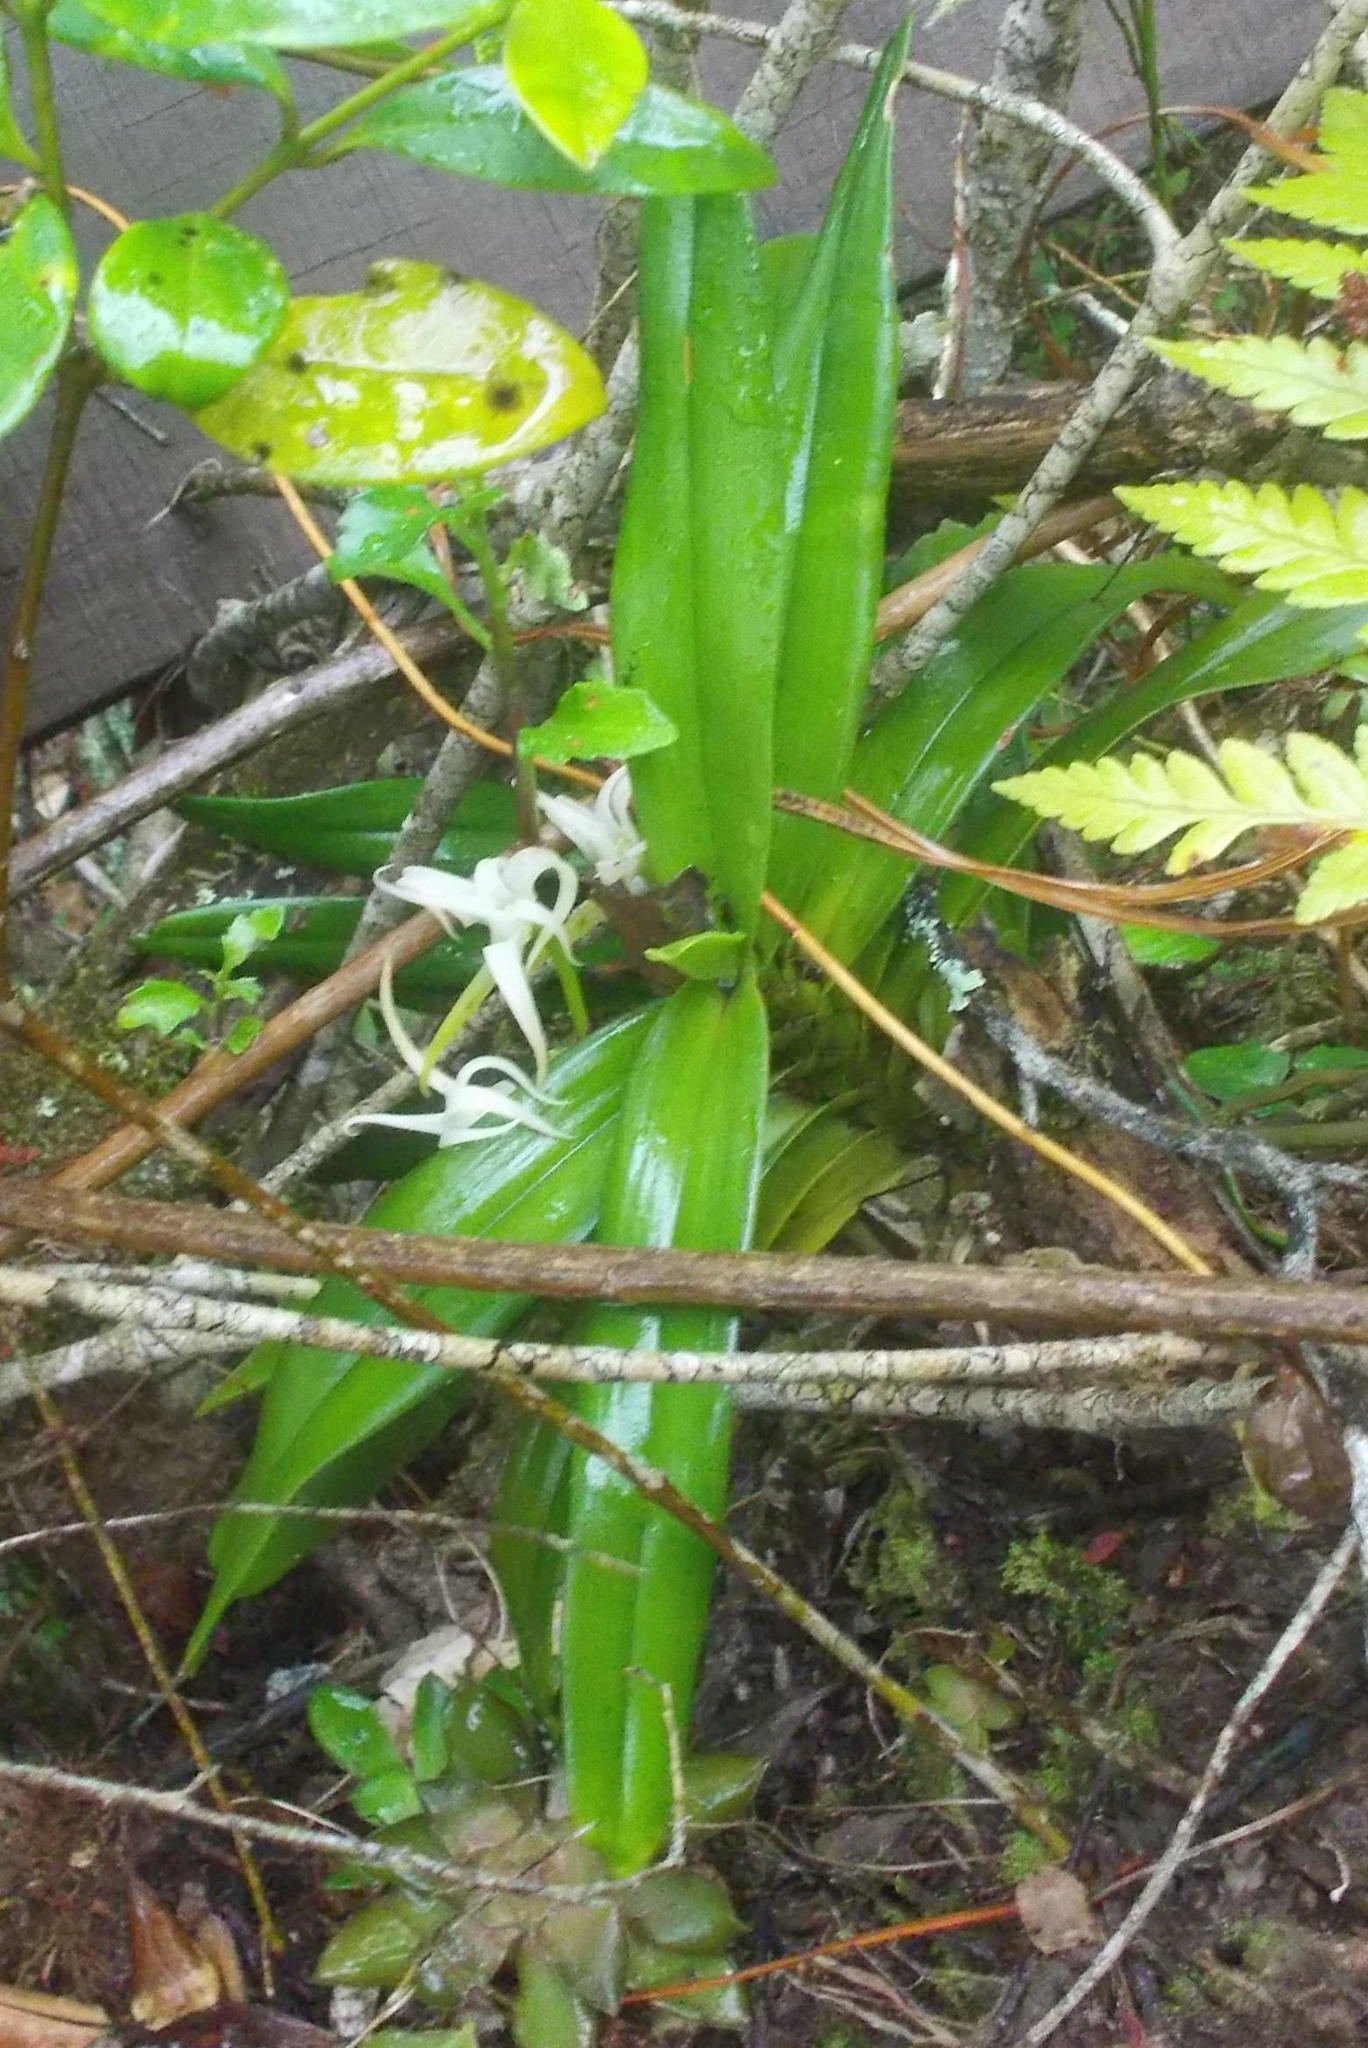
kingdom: Plantae
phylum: Tracheophyta
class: Liliopsida
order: Asparagales
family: Orchidaceae
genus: Cyrtorchis
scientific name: Cyrtorchis arcuata
